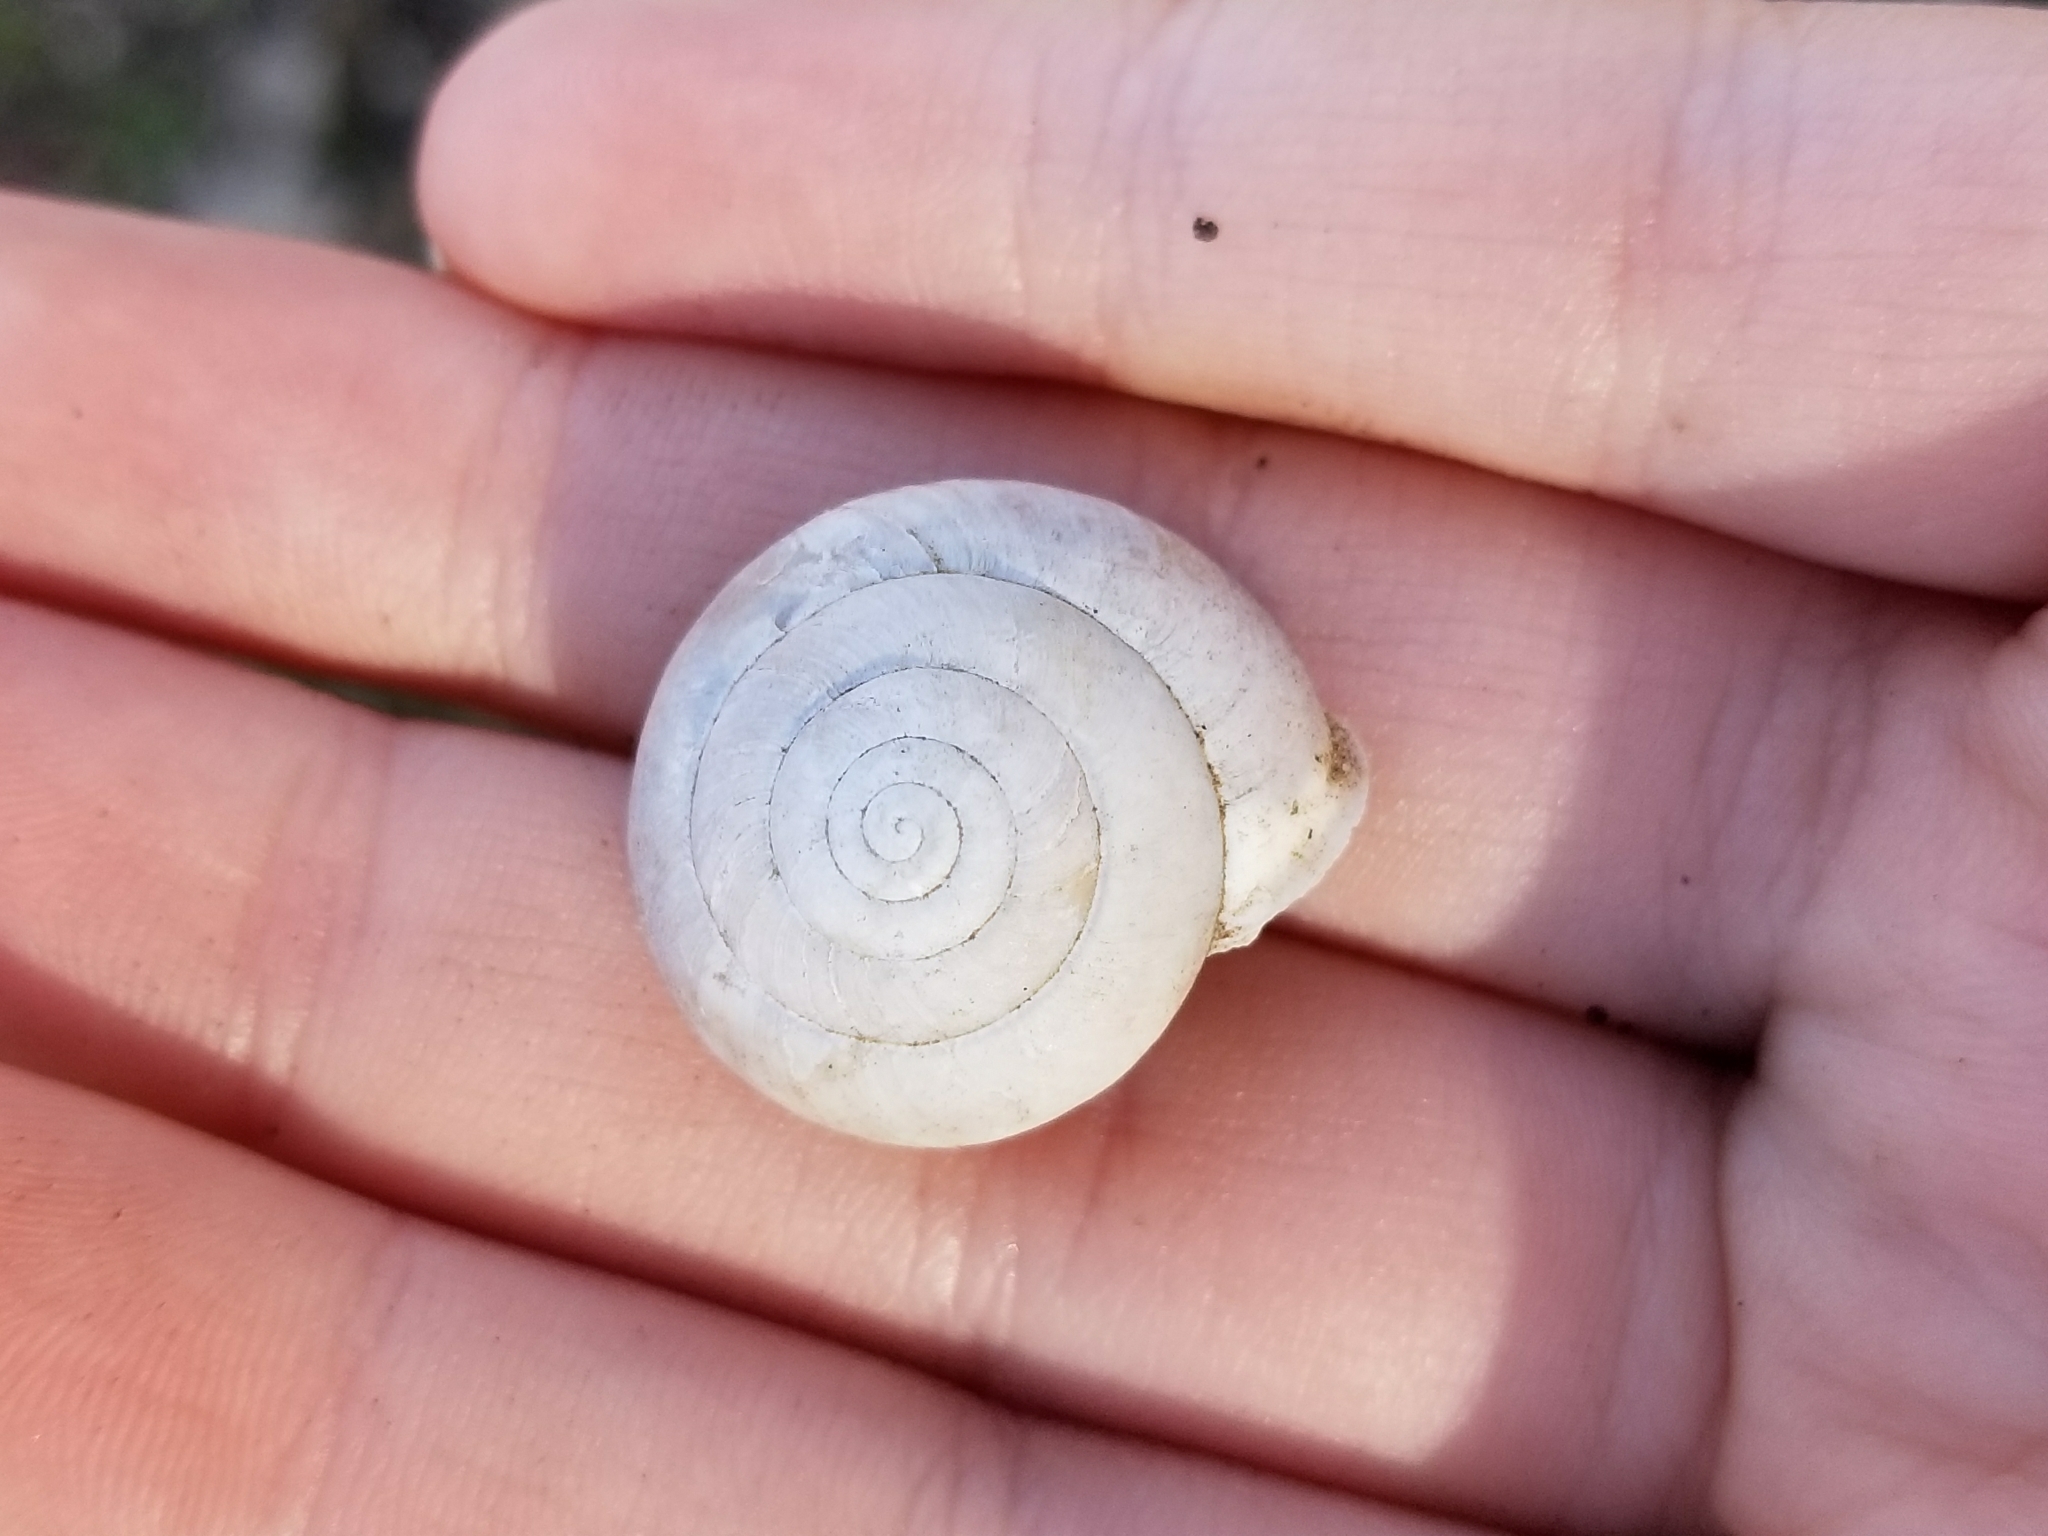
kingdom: Animalia
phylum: Mollusca
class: Gastropoda
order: Stylommatophora
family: Polygyridae
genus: Patera
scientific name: Patera roemeri
